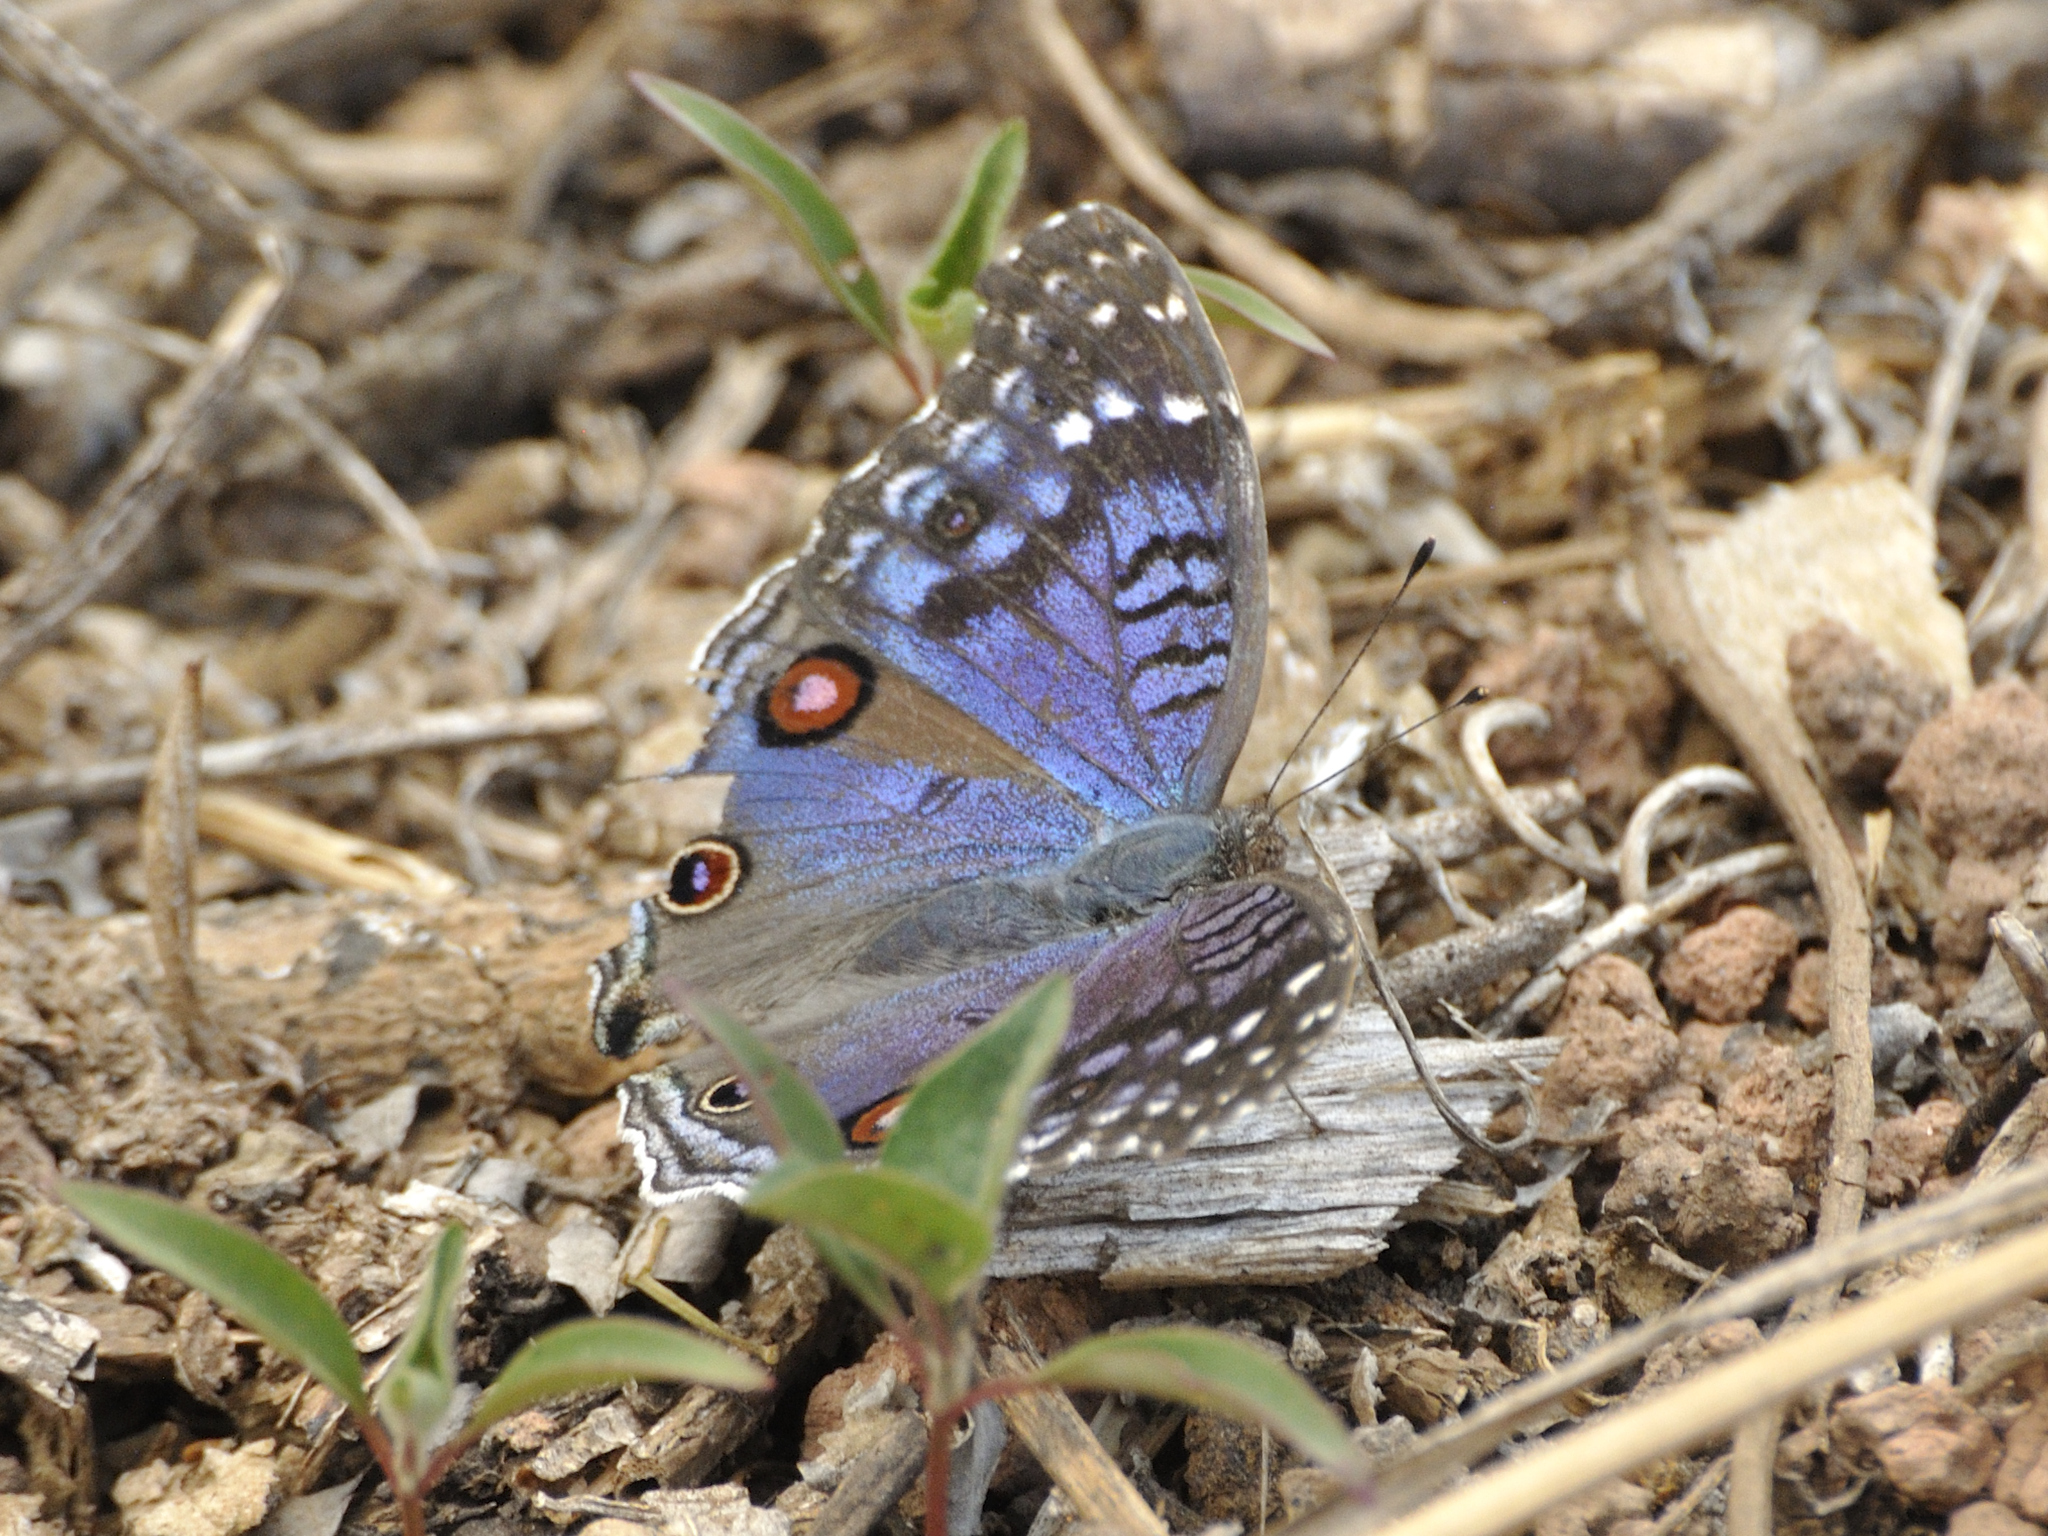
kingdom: Animalia
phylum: Arthropoda
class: Insecta
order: Lepidoptera
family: Nymphalidae
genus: Junonia
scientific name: Junonia rhadama
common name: Royal blue pansy
